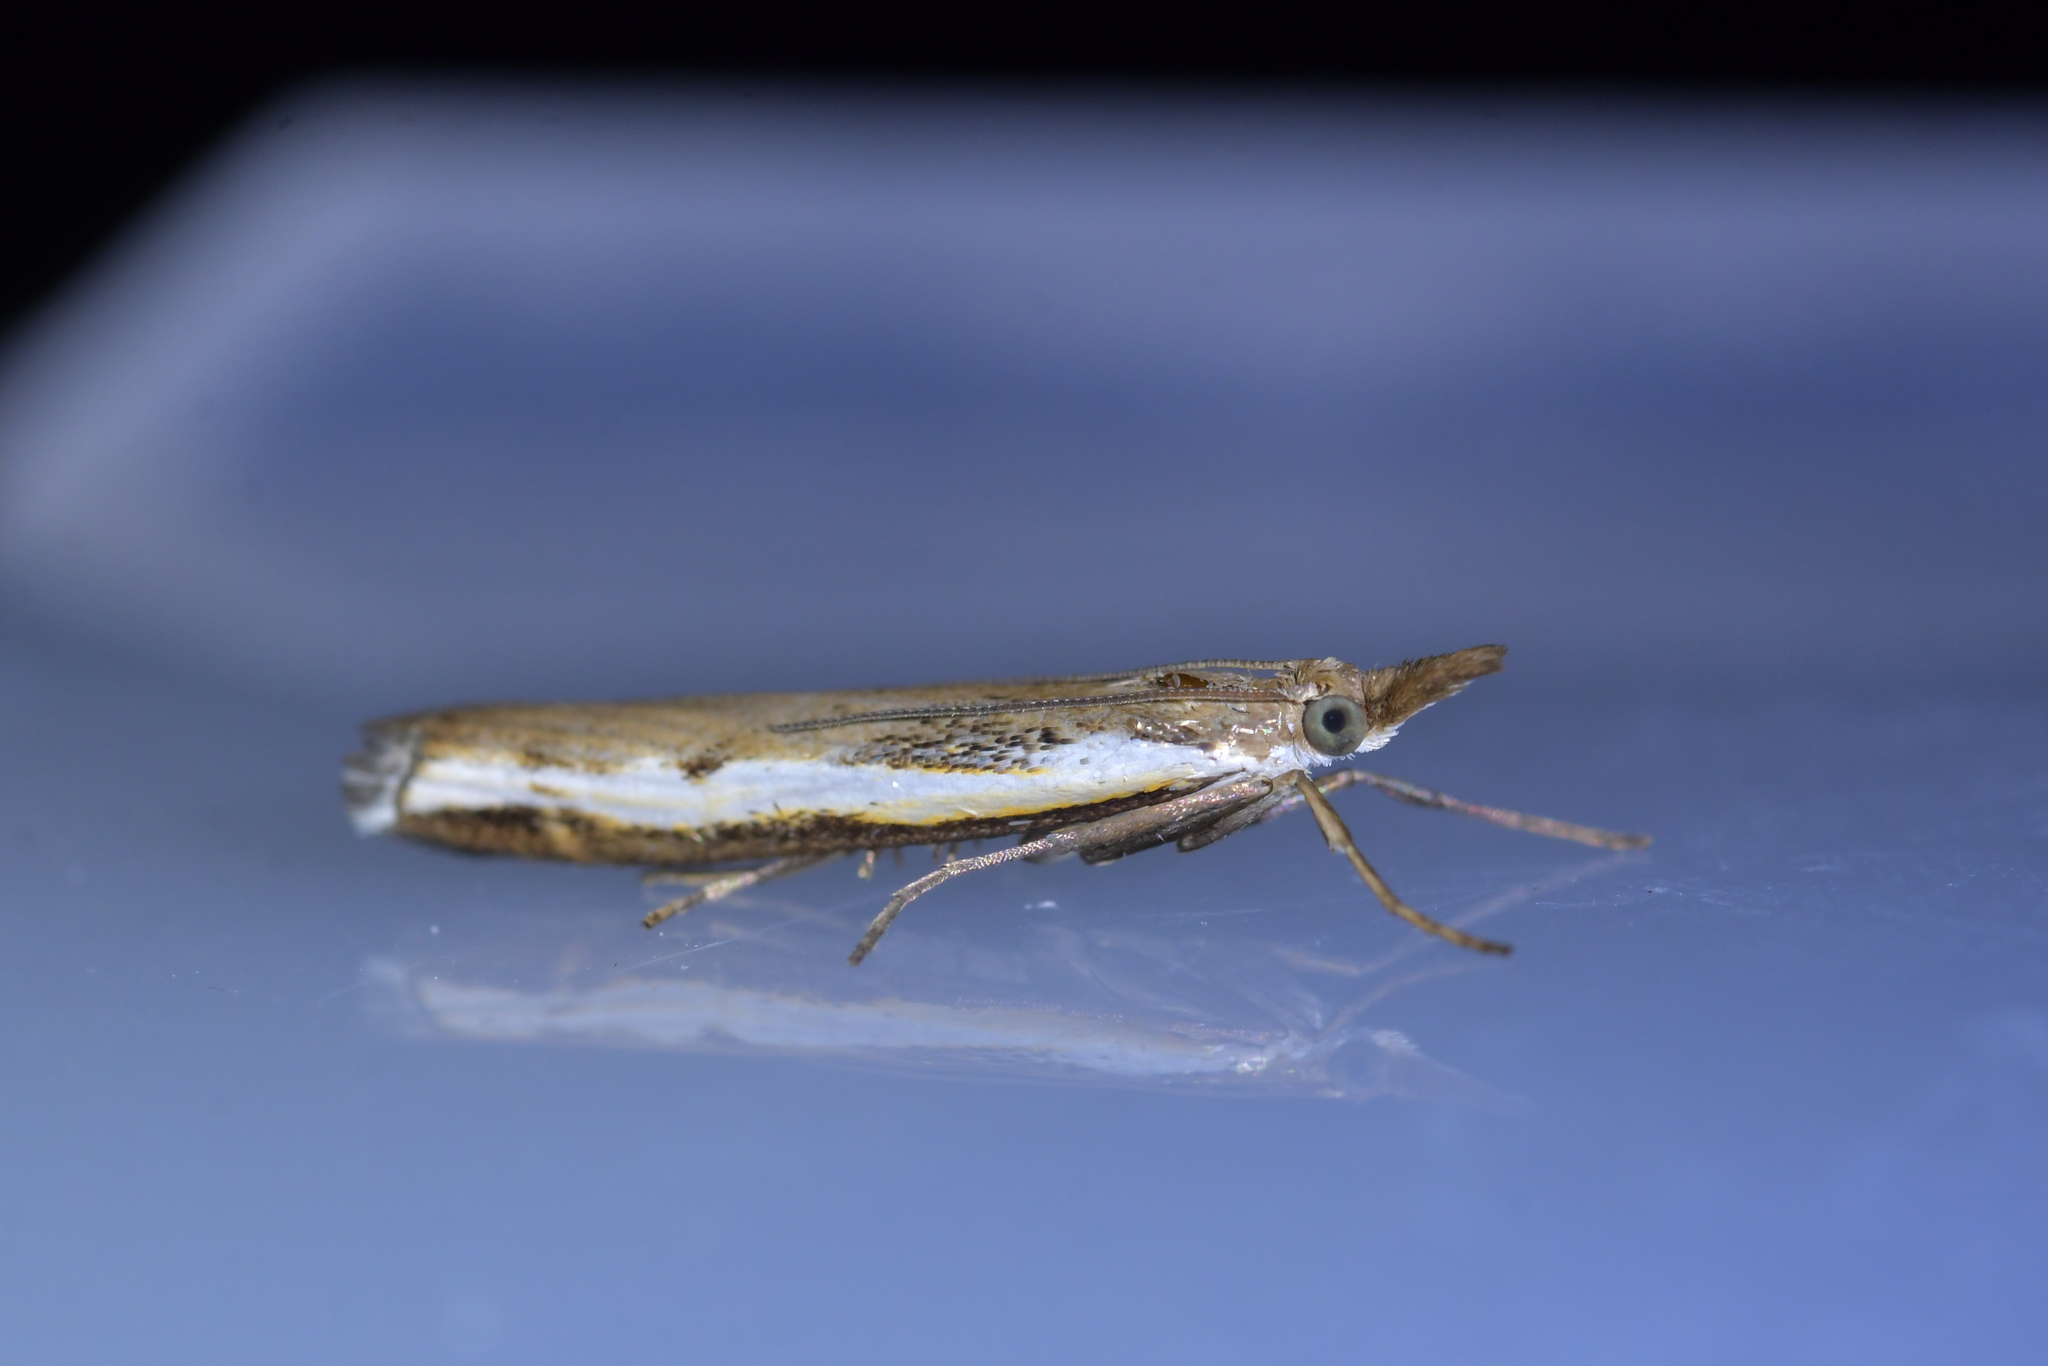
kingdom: Animalia
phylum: Arthropoda
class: Insecta
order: Lepidoptera
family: Crambidae
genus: Orocrambus
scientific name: Orocrambus flexuosellus
